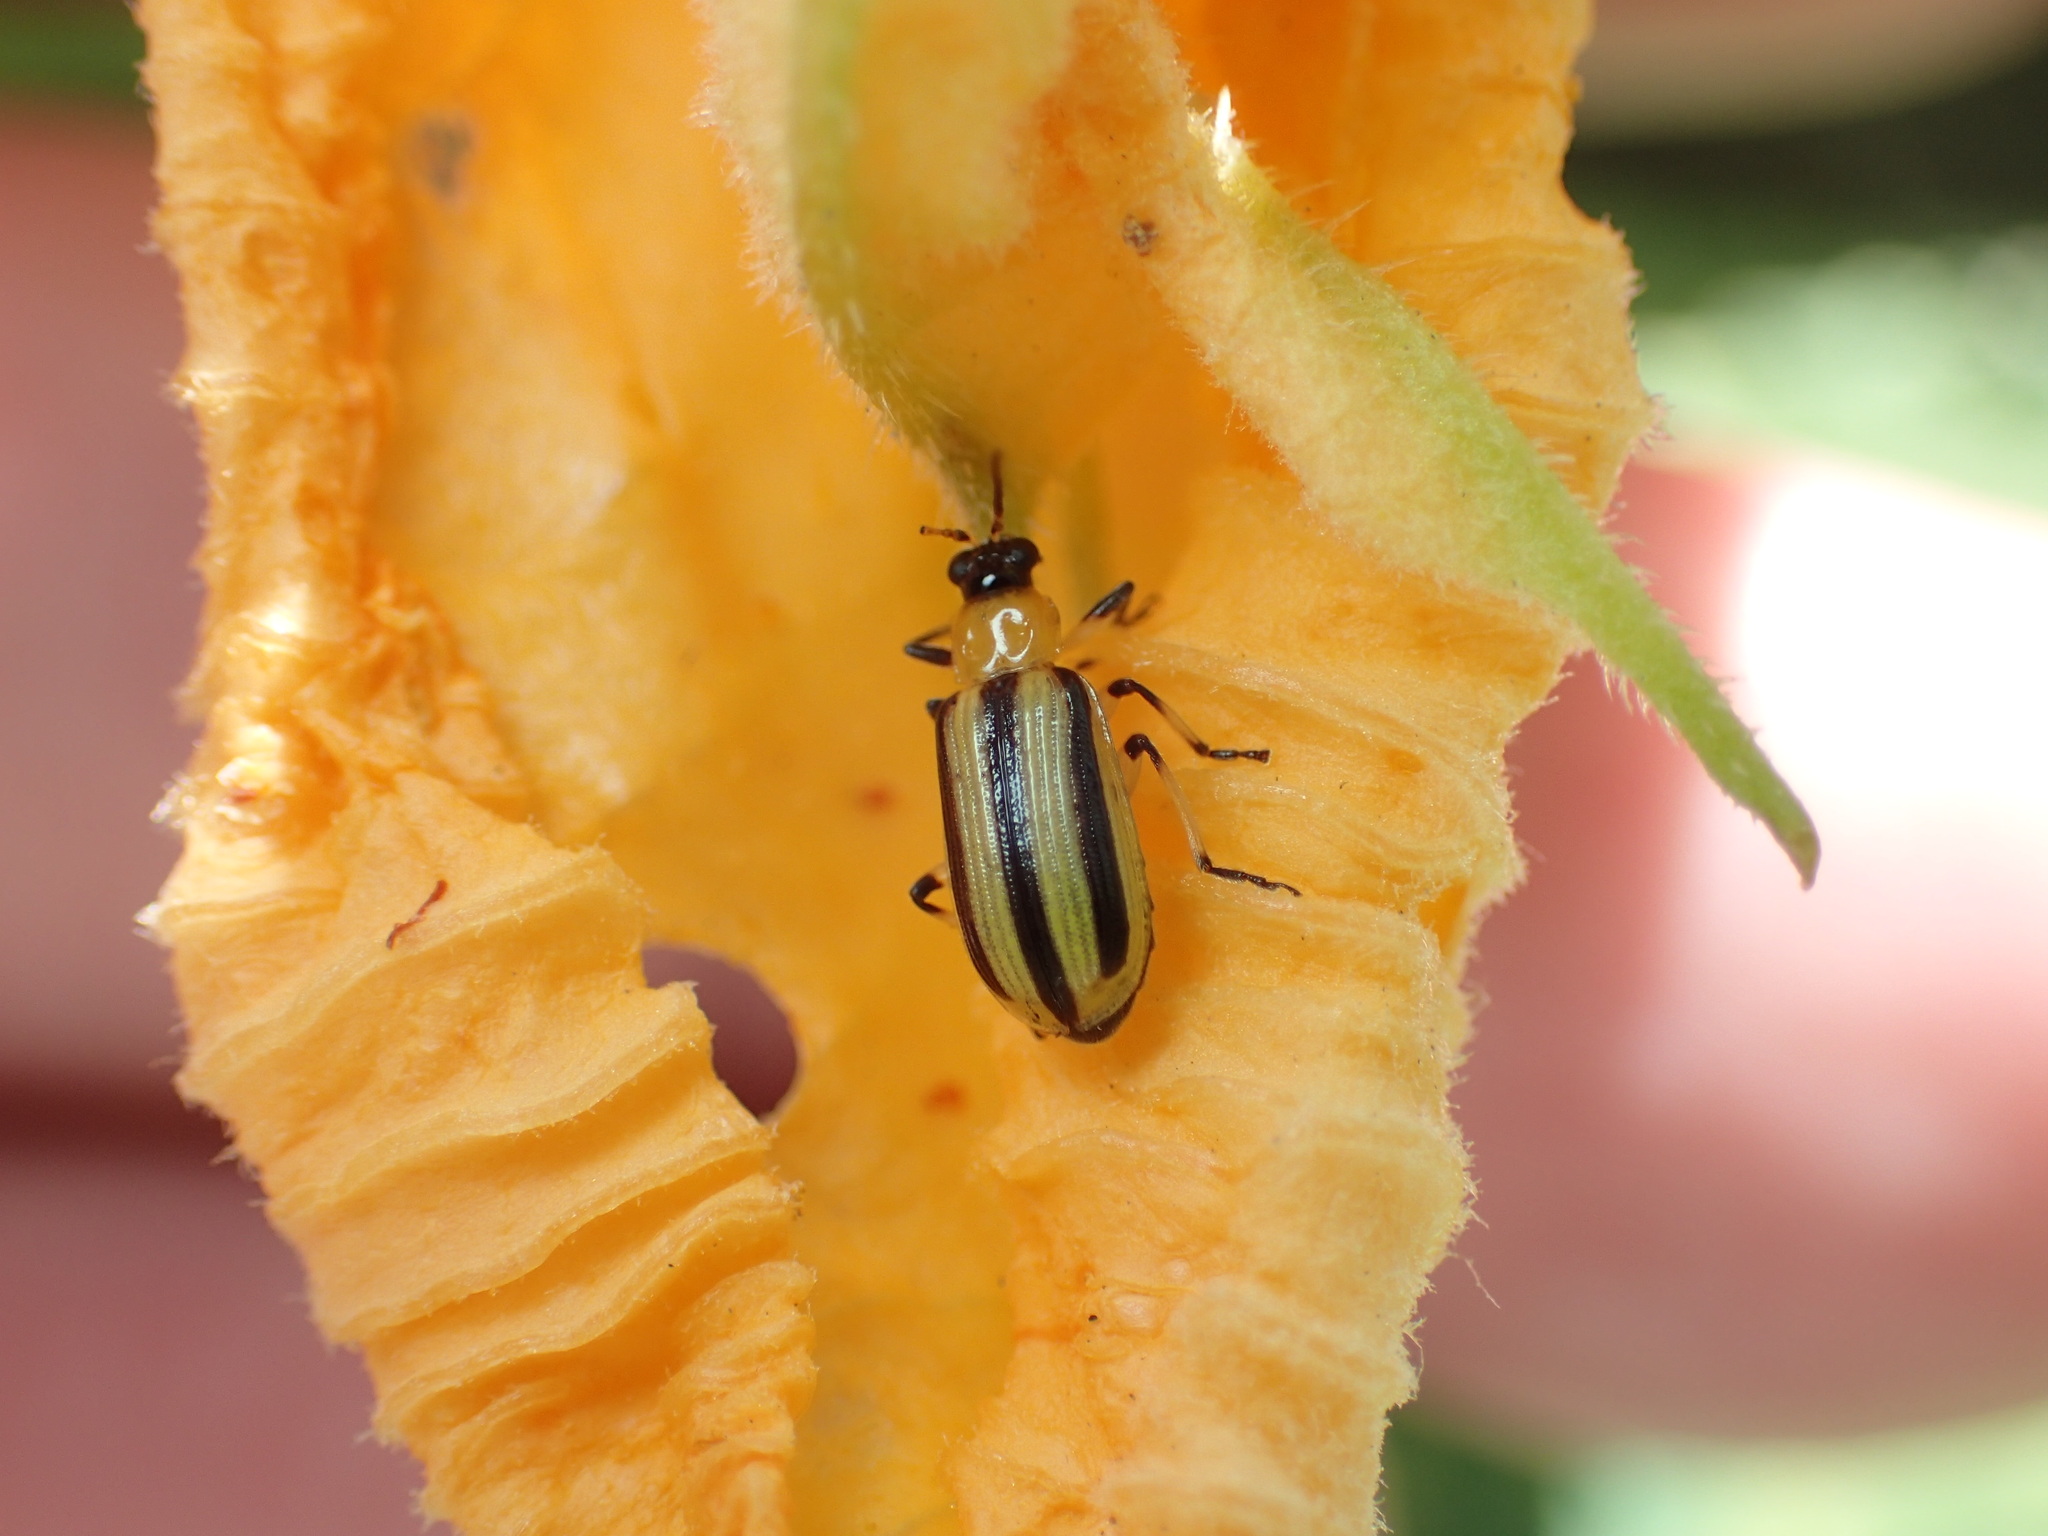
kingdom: Animalia
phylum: Arthropoda
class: Insecta
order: Coleoptera
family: Chrysomelidae
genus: Acalymma
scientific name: Acalymma vittatum
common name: Striped cucumber beetle
